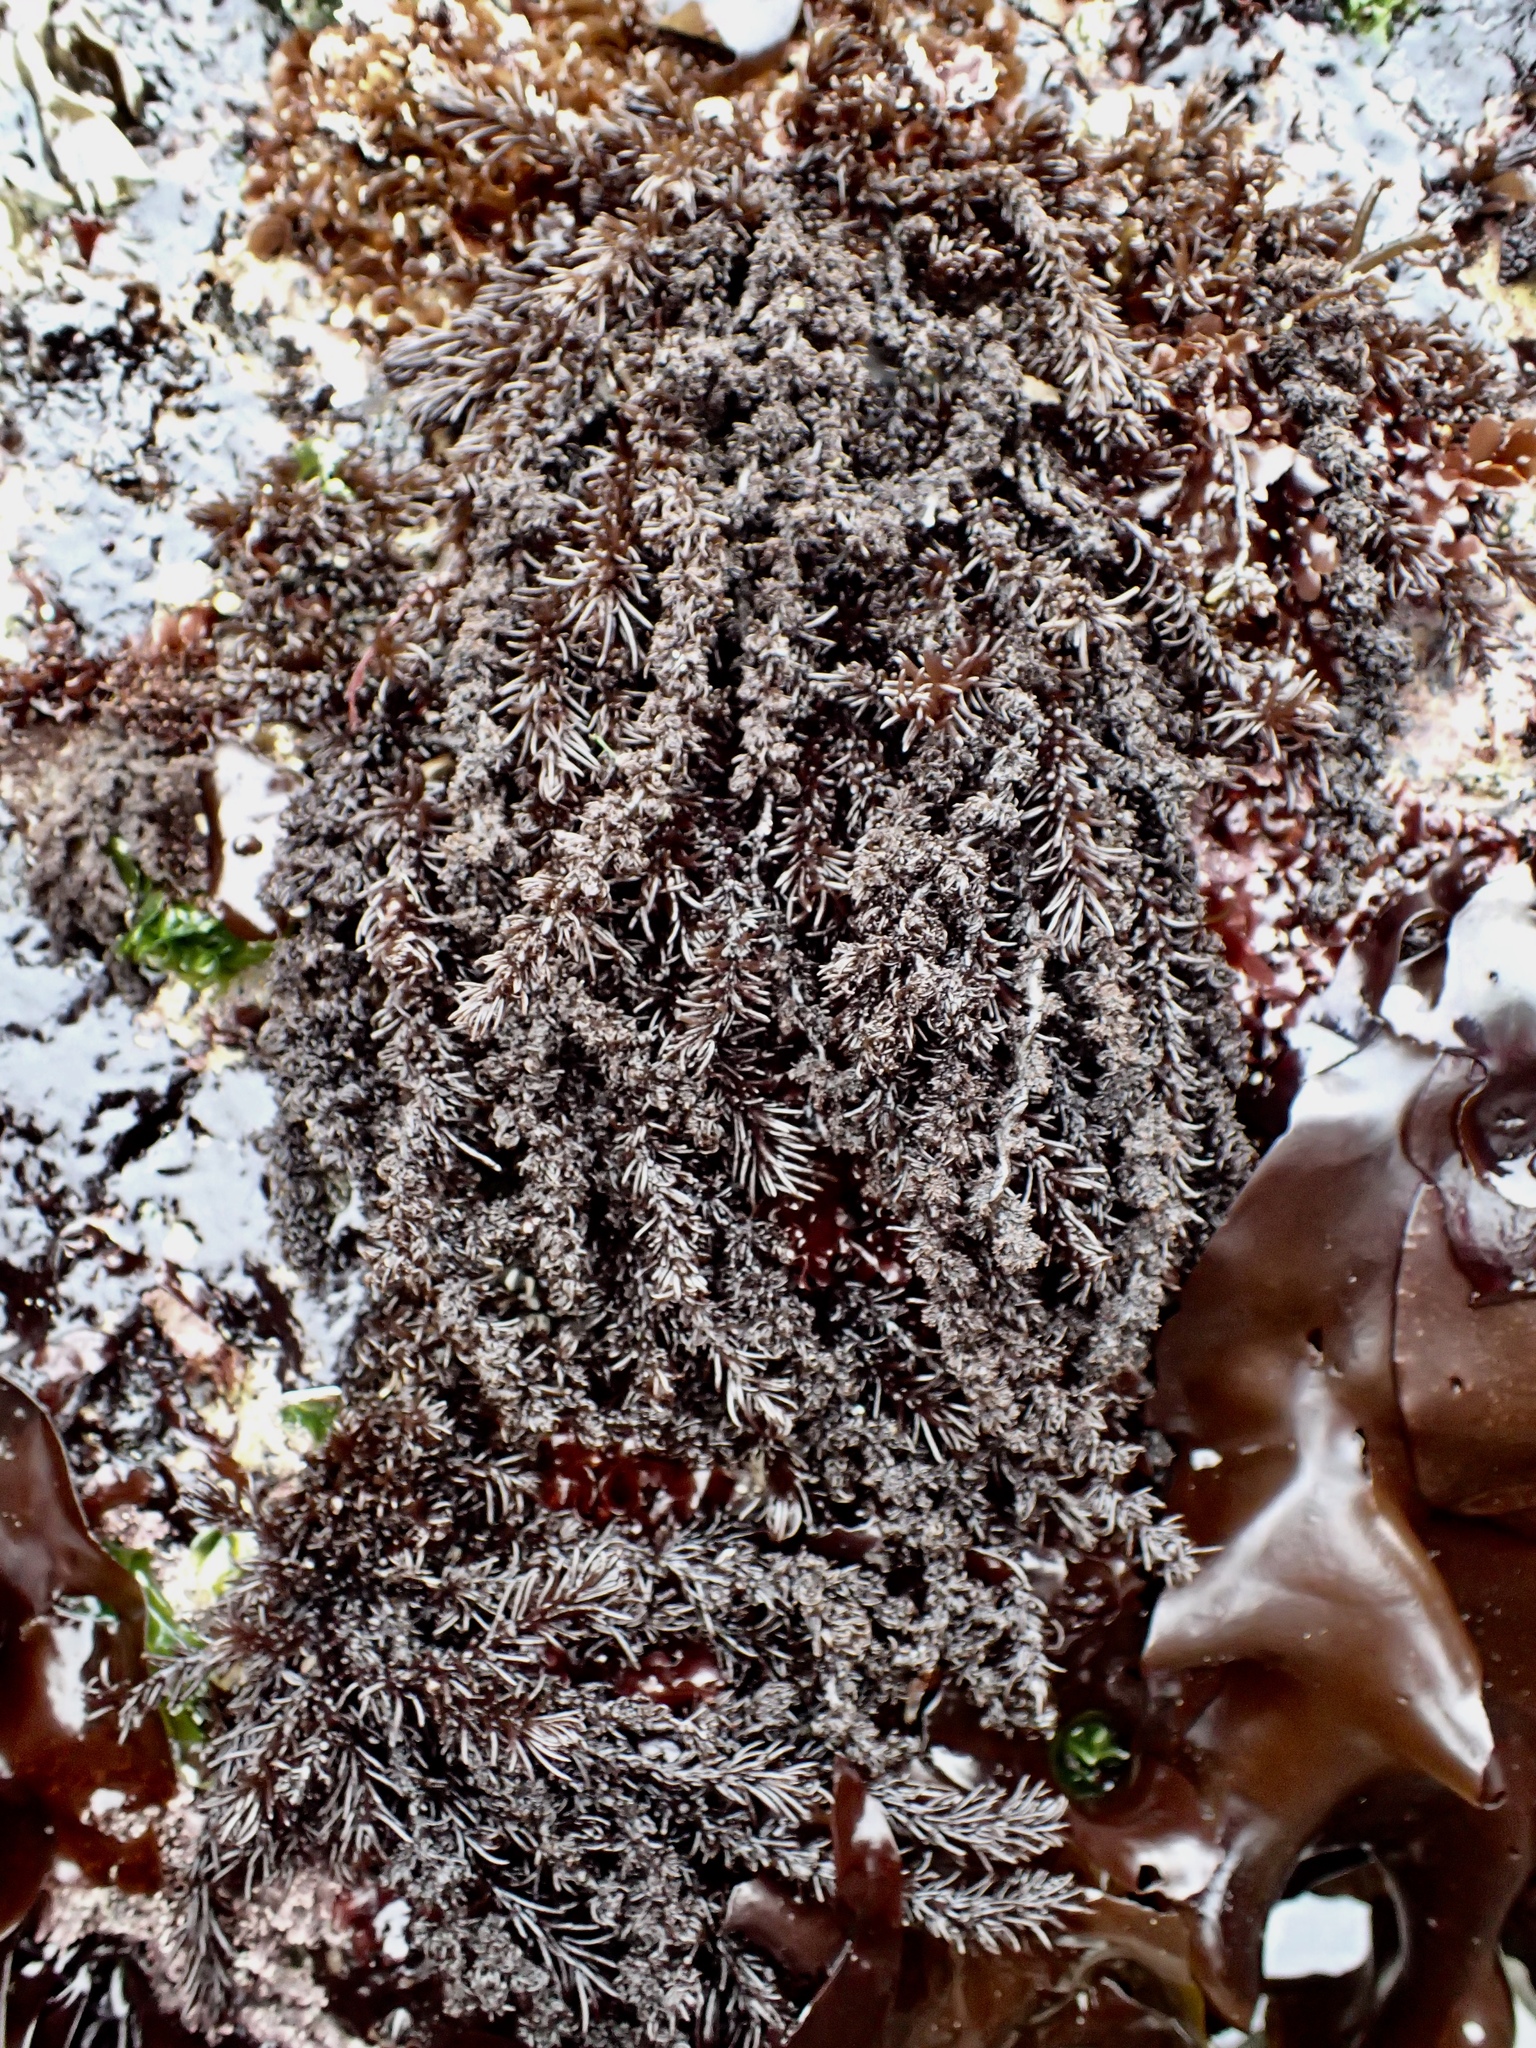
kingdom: Plantae
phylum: Rhodophyta
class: Florideophyceae
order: Ceramiales
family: Rhodomelaceae
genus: Neorhodomela
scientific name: Neorhodomela larix
